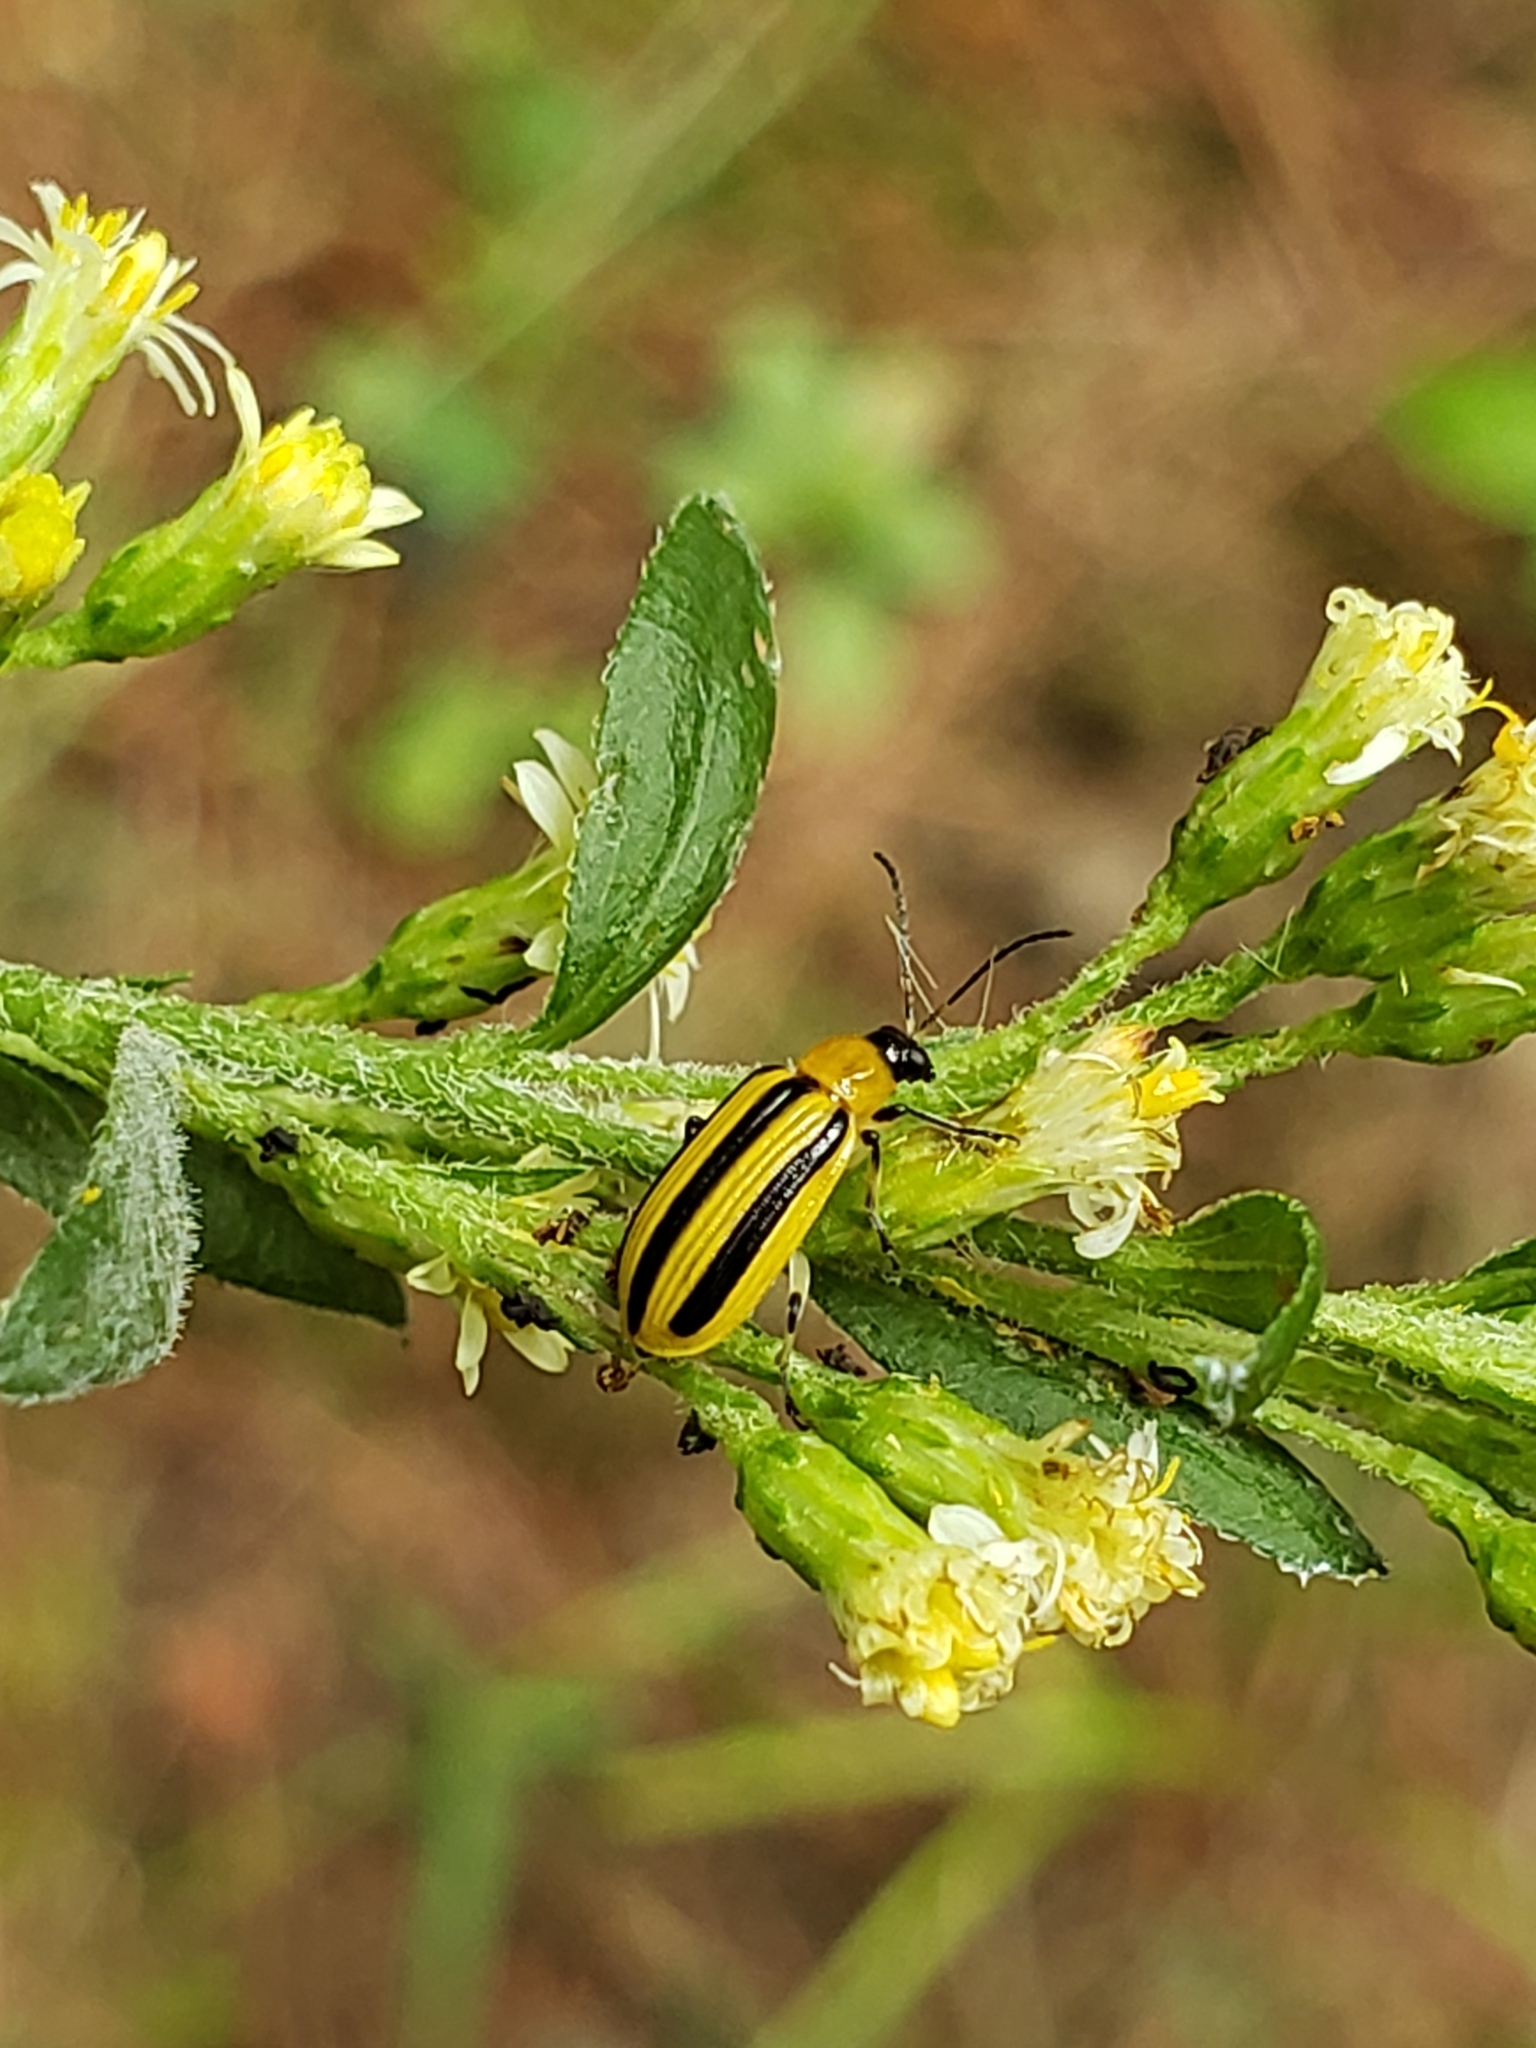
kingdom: Animalia
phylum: Arthropoda
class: Insecta
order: Coleoptera
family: Chrysomelidae
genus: Acalymma
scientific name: Acalymma vittatum
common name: Striped cucumber beetle
